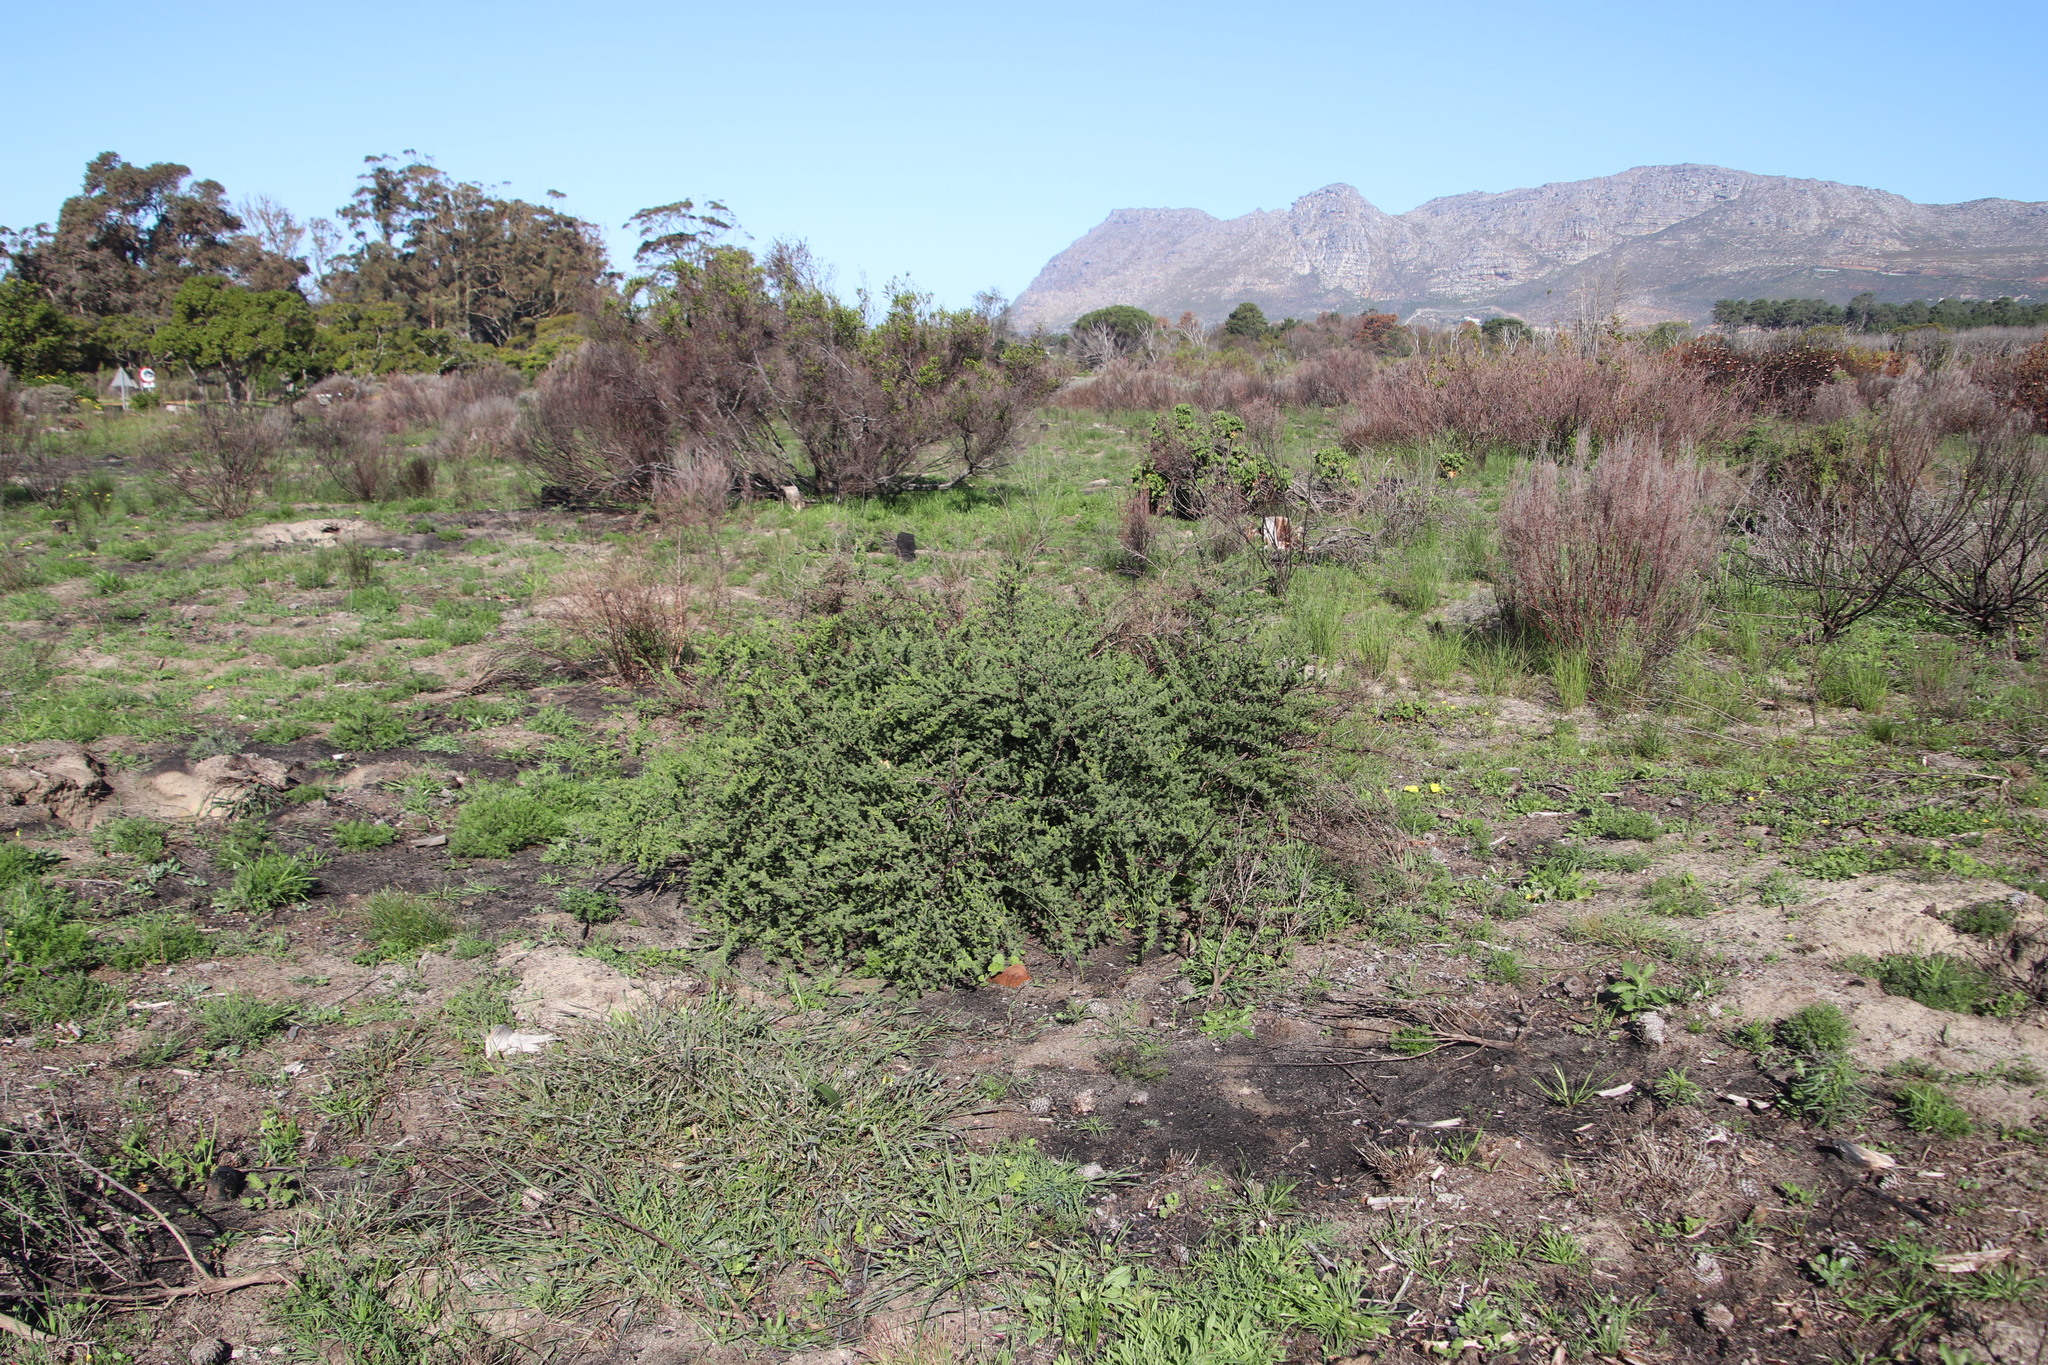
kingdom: Plantae
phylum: Tracheophyta
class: Liliopsida
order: Asparagales
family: Asparagaceae
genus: Asparagus
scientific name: Asparagus rubicundus
